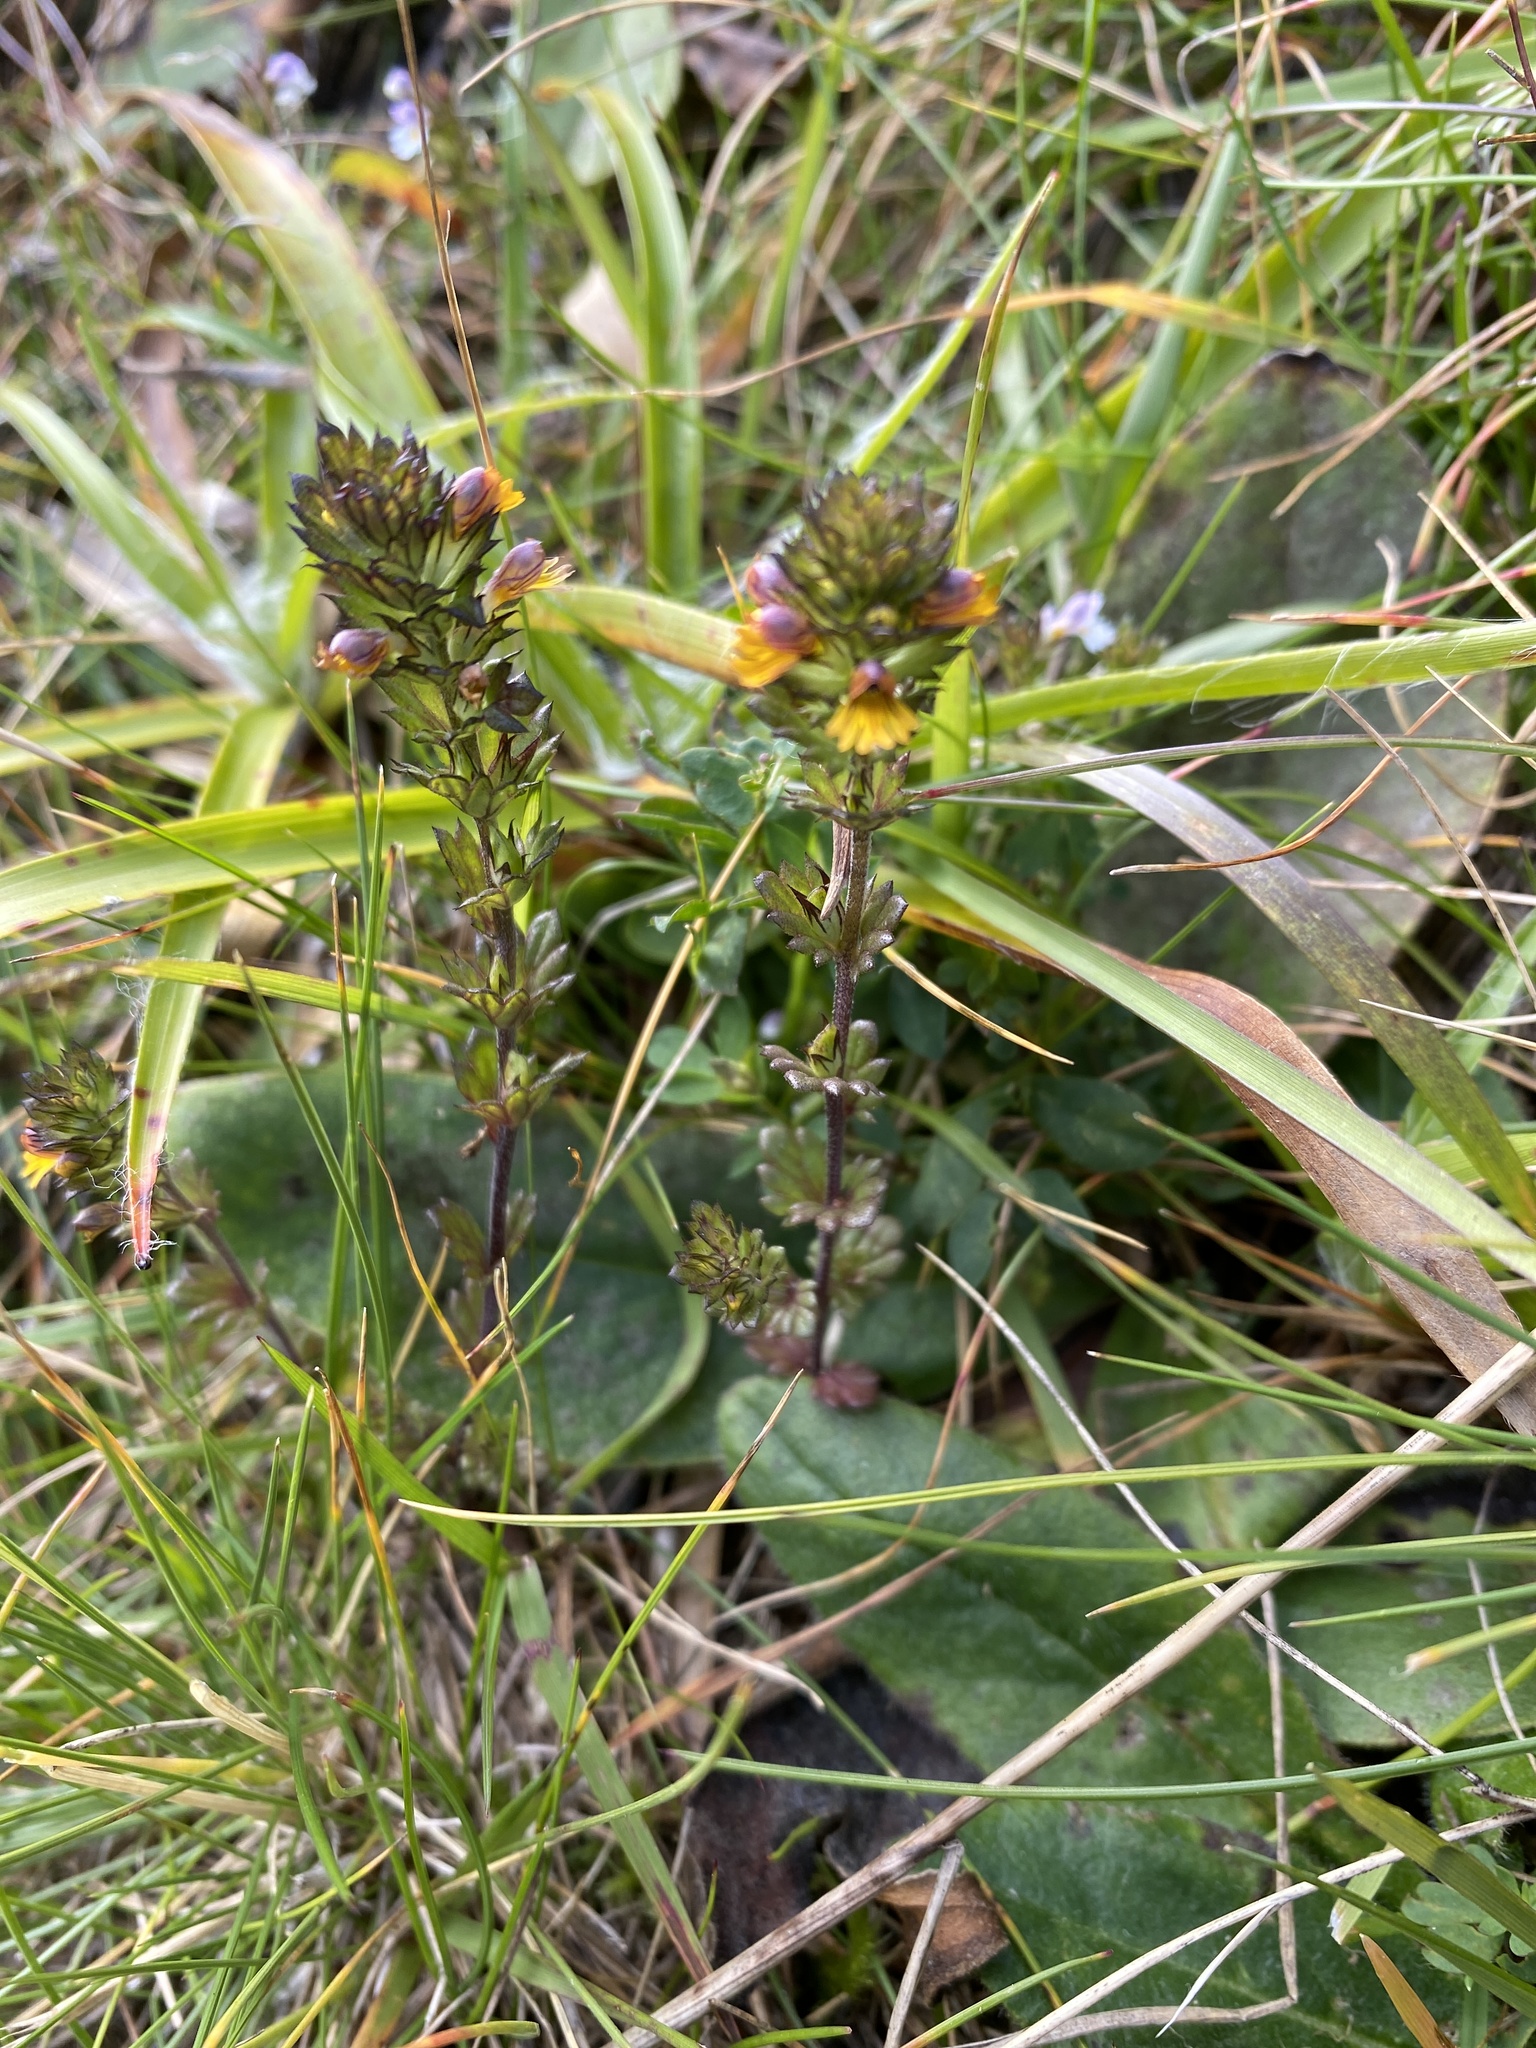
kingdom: Plantae
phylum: Tracheophyta
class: Magnoliopsida
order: Lamiales
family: Orobanchaceae
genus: Euphrasia
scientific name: Euphrasia minima
